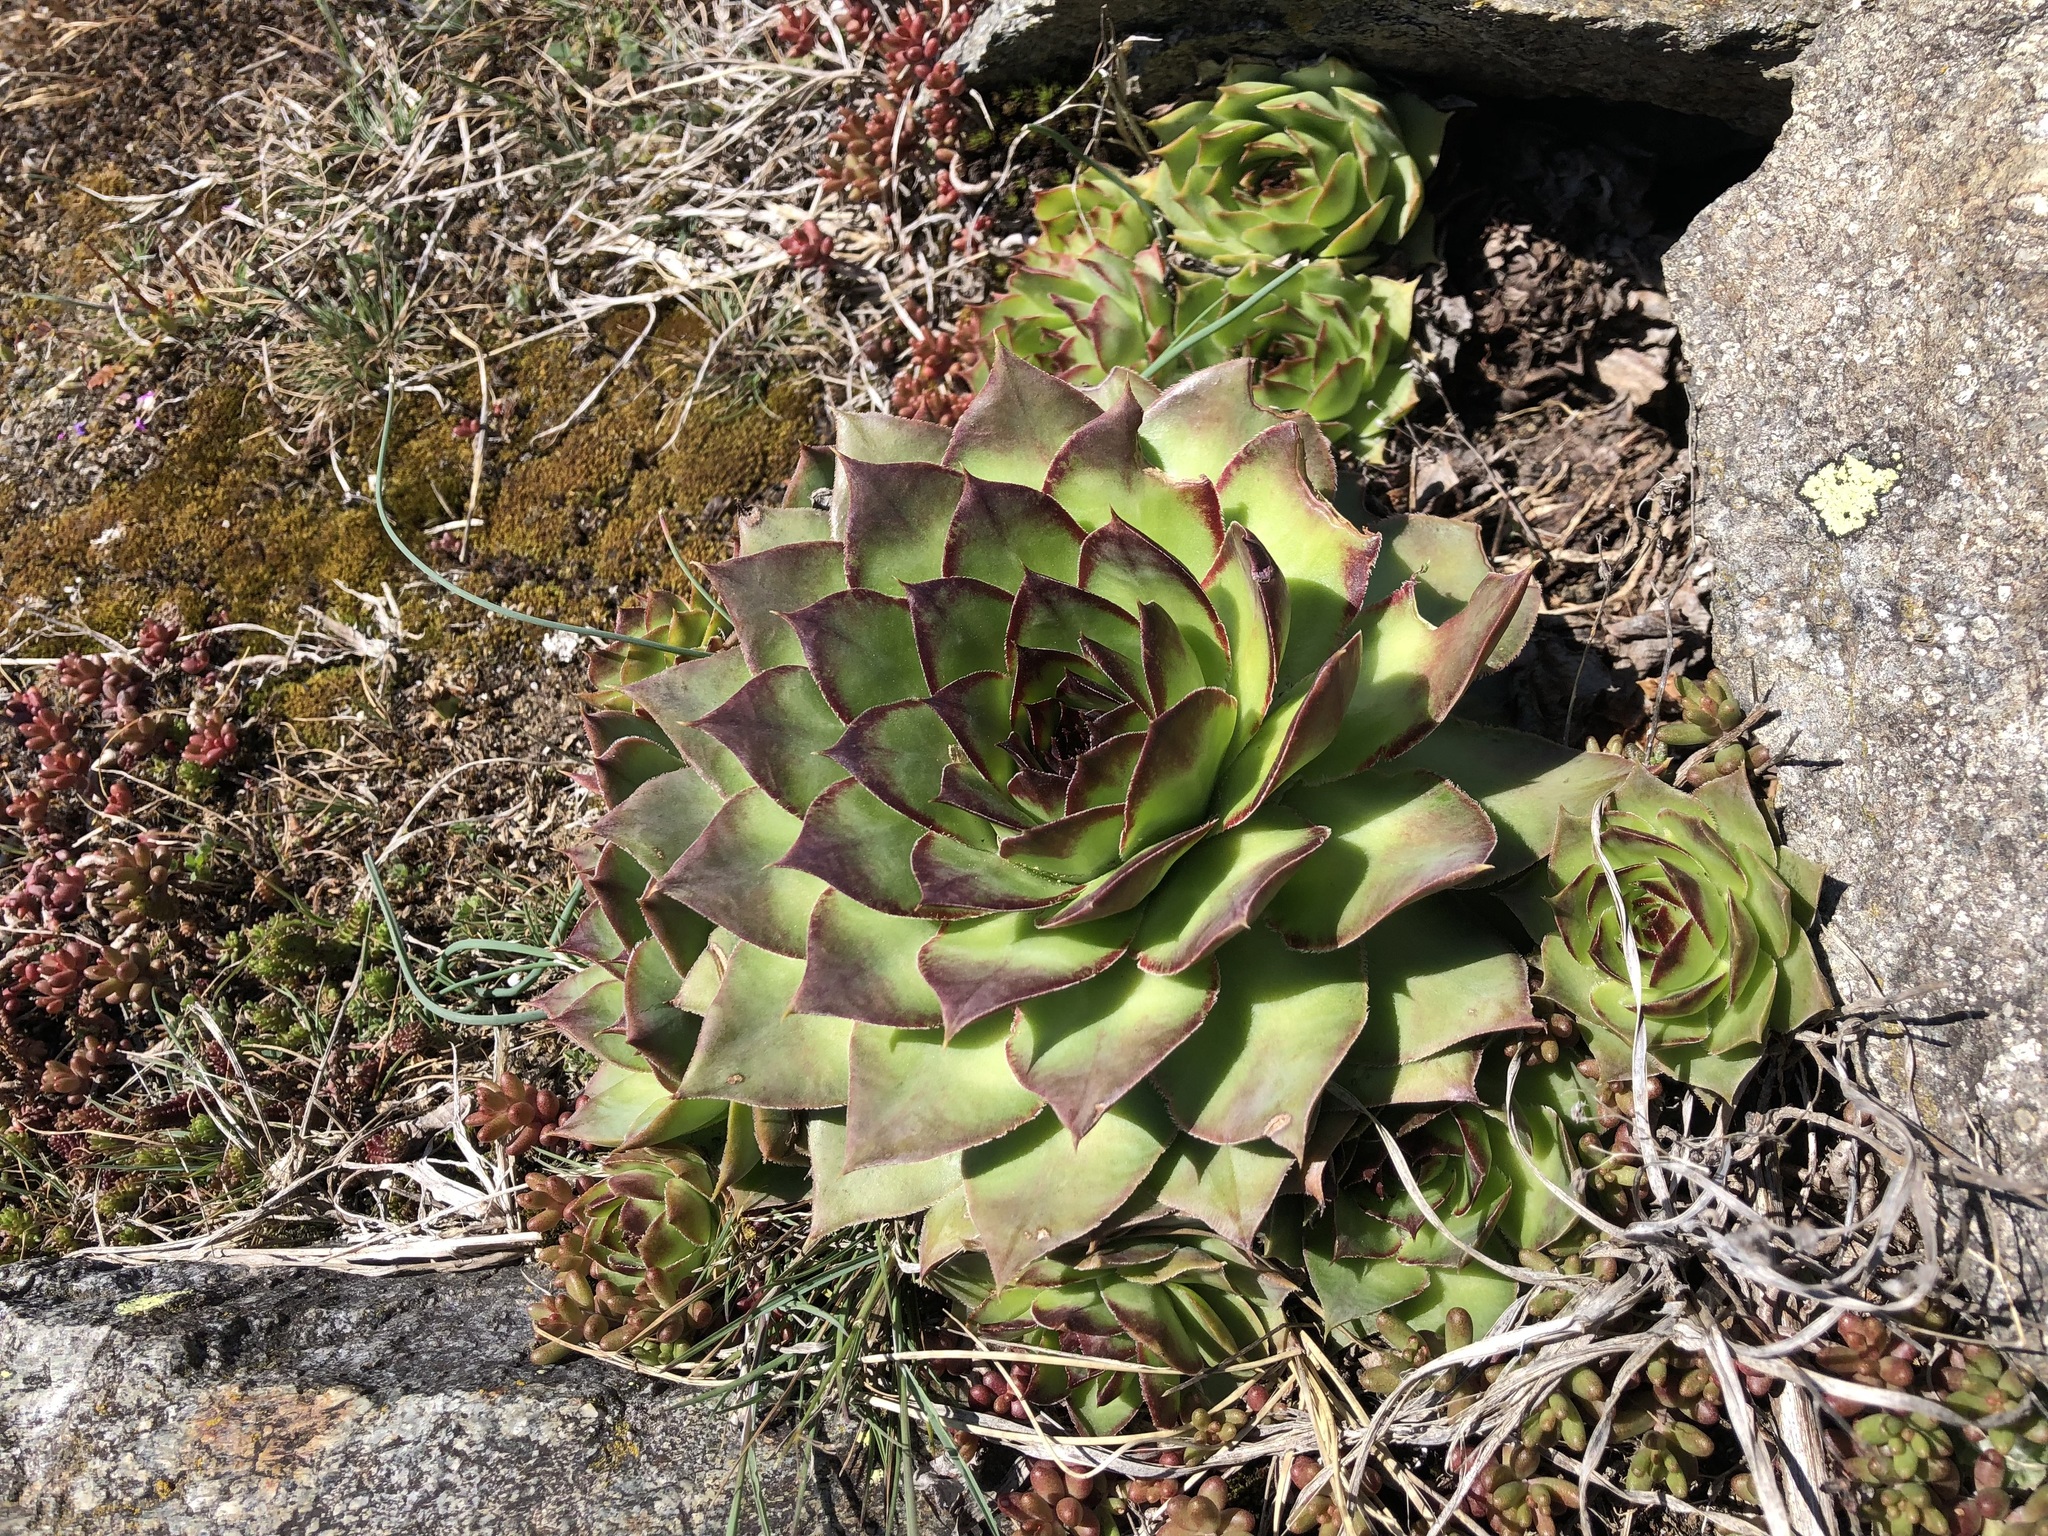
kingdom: Plantae
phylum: Tracheophyta
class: Magnoliopsida
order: Saxifragales
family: Crassulaceae
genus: Sempervivum
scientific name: Sempervivum tectorum
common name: House-leek
